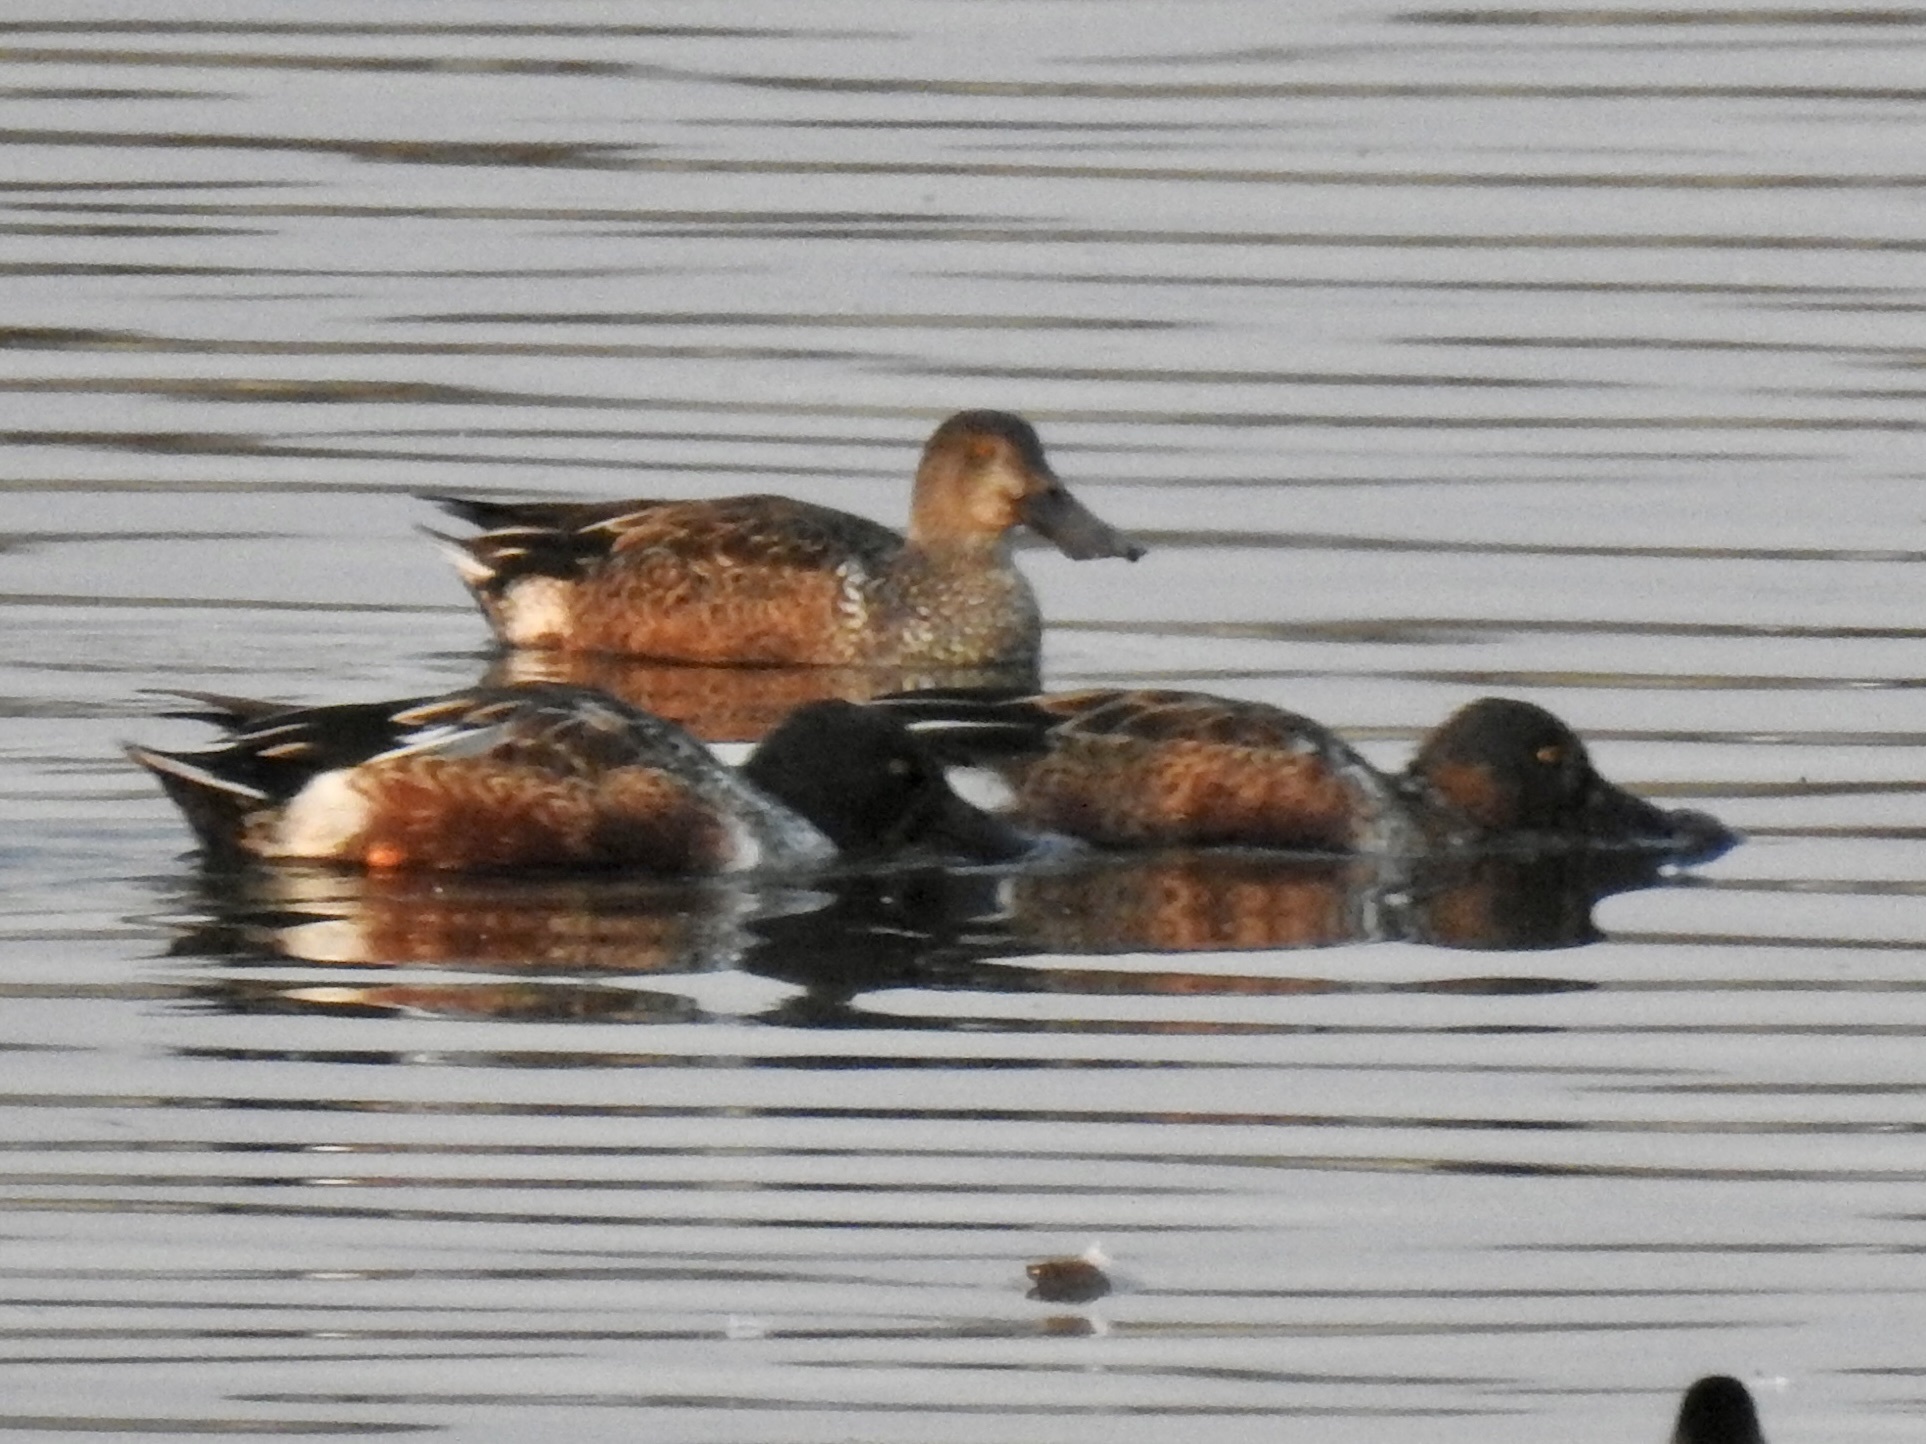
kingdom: Animalia
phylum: Chordata
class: Aves
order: Anseriformes
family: Anatidae
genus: Spatula
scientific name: Spatula clypeata
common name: Northern shoveler
